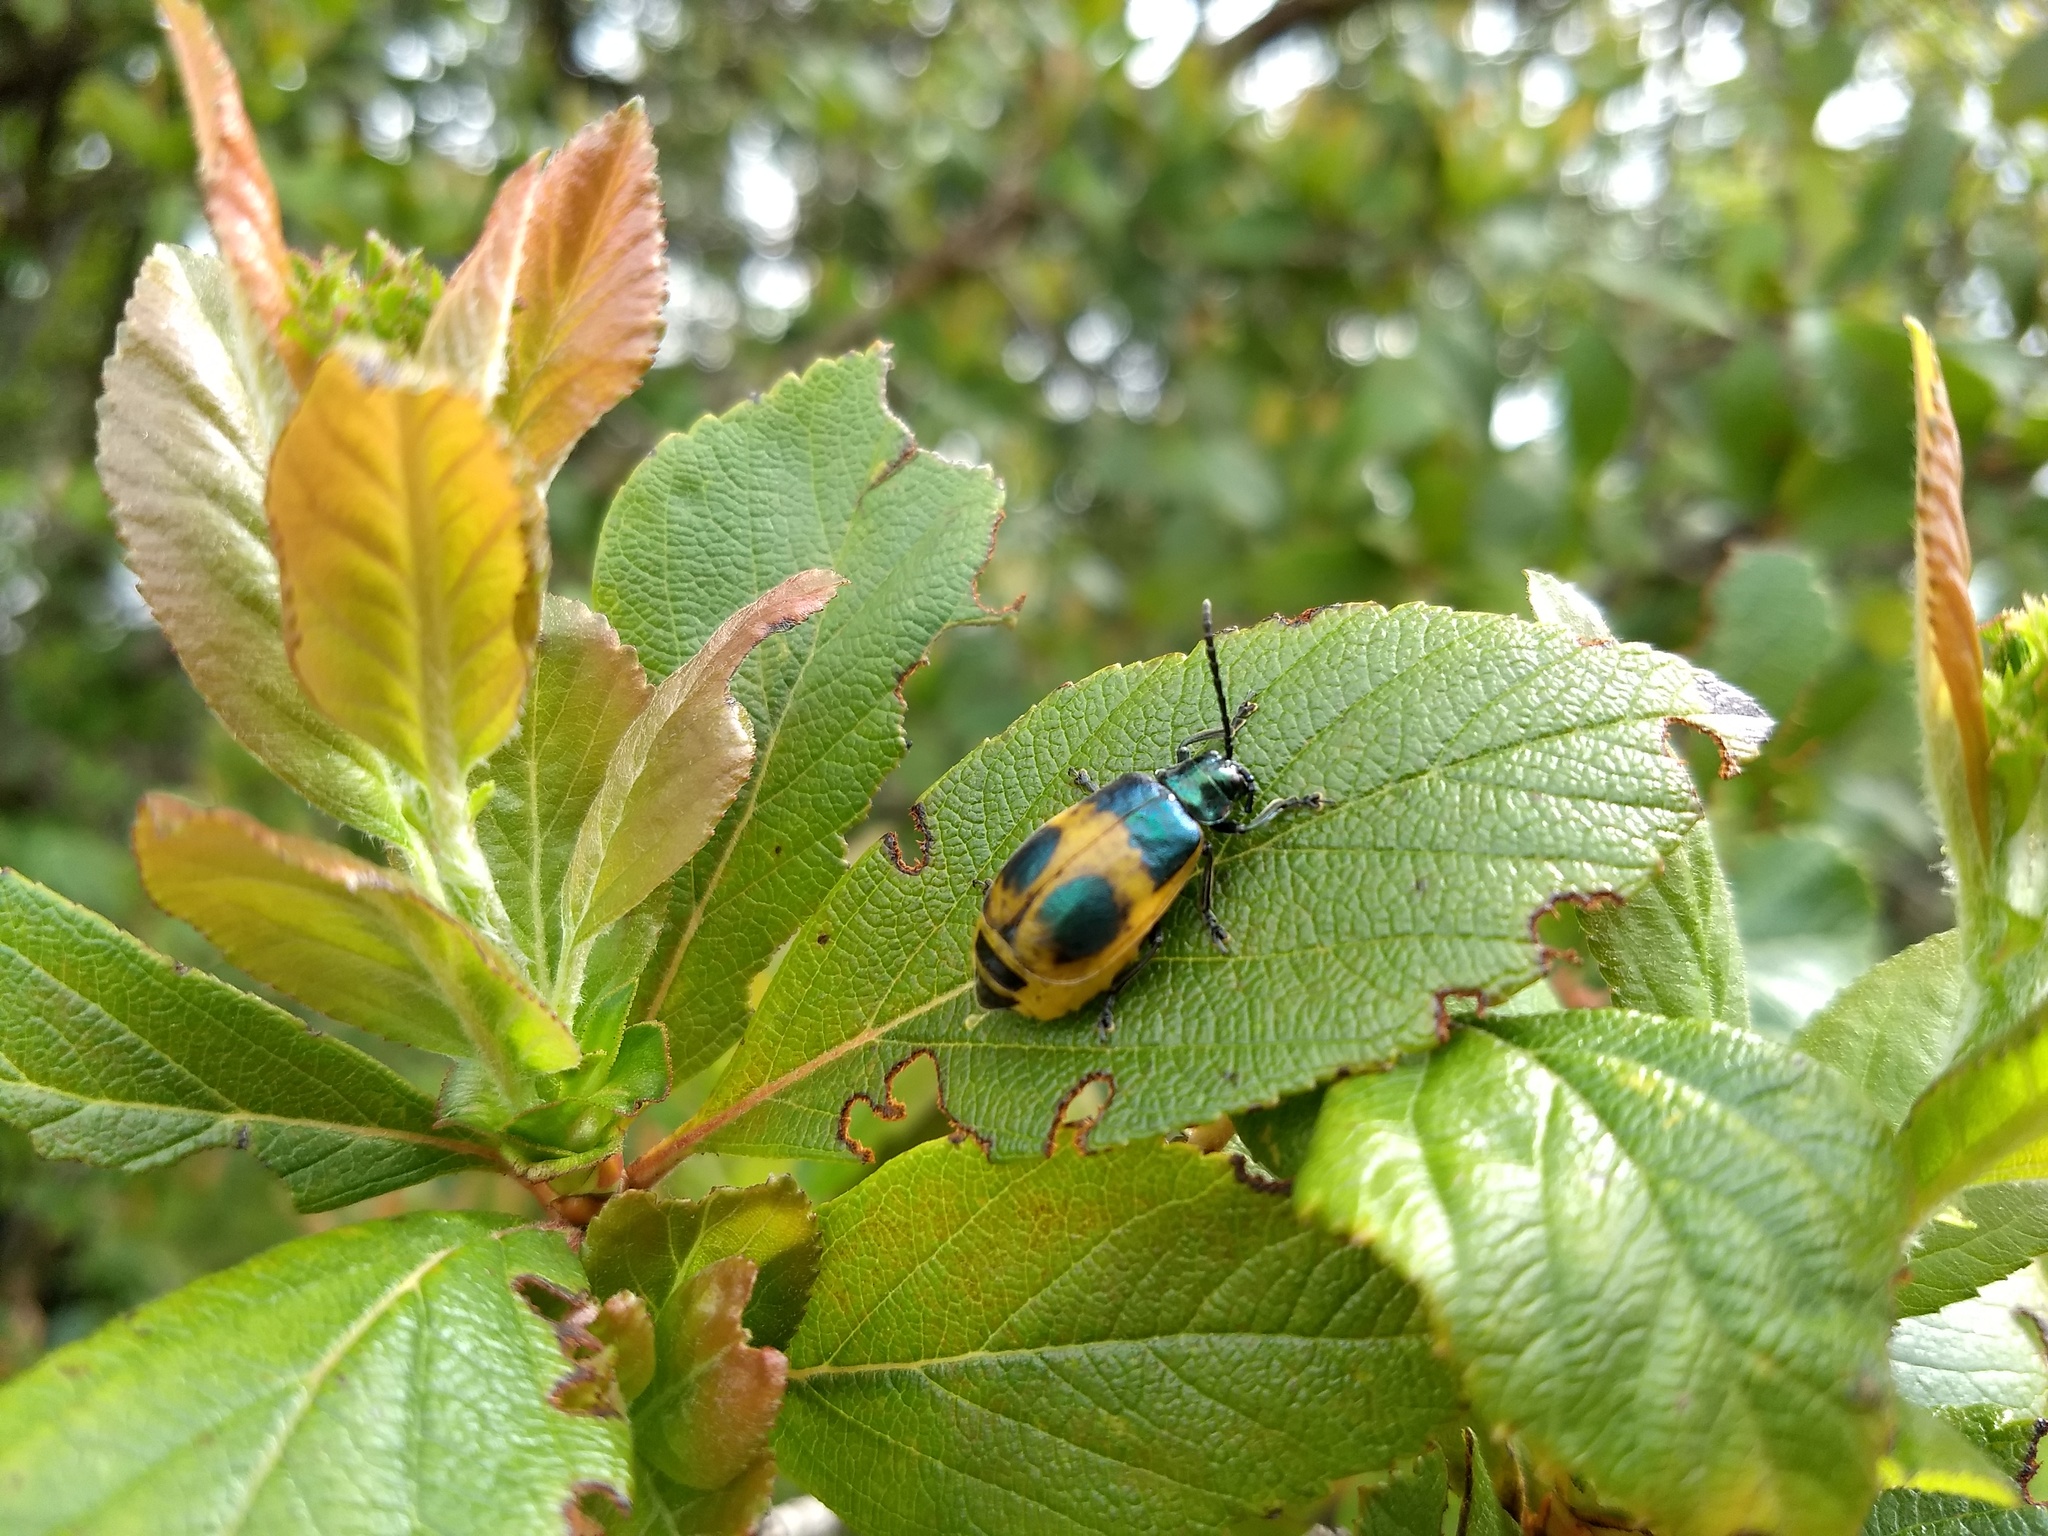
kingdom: Animalia
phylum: Arthropoda
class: Insecta
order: Coleoptera
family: Chrysomelidae
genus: Monocesta
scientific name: Monocesta
